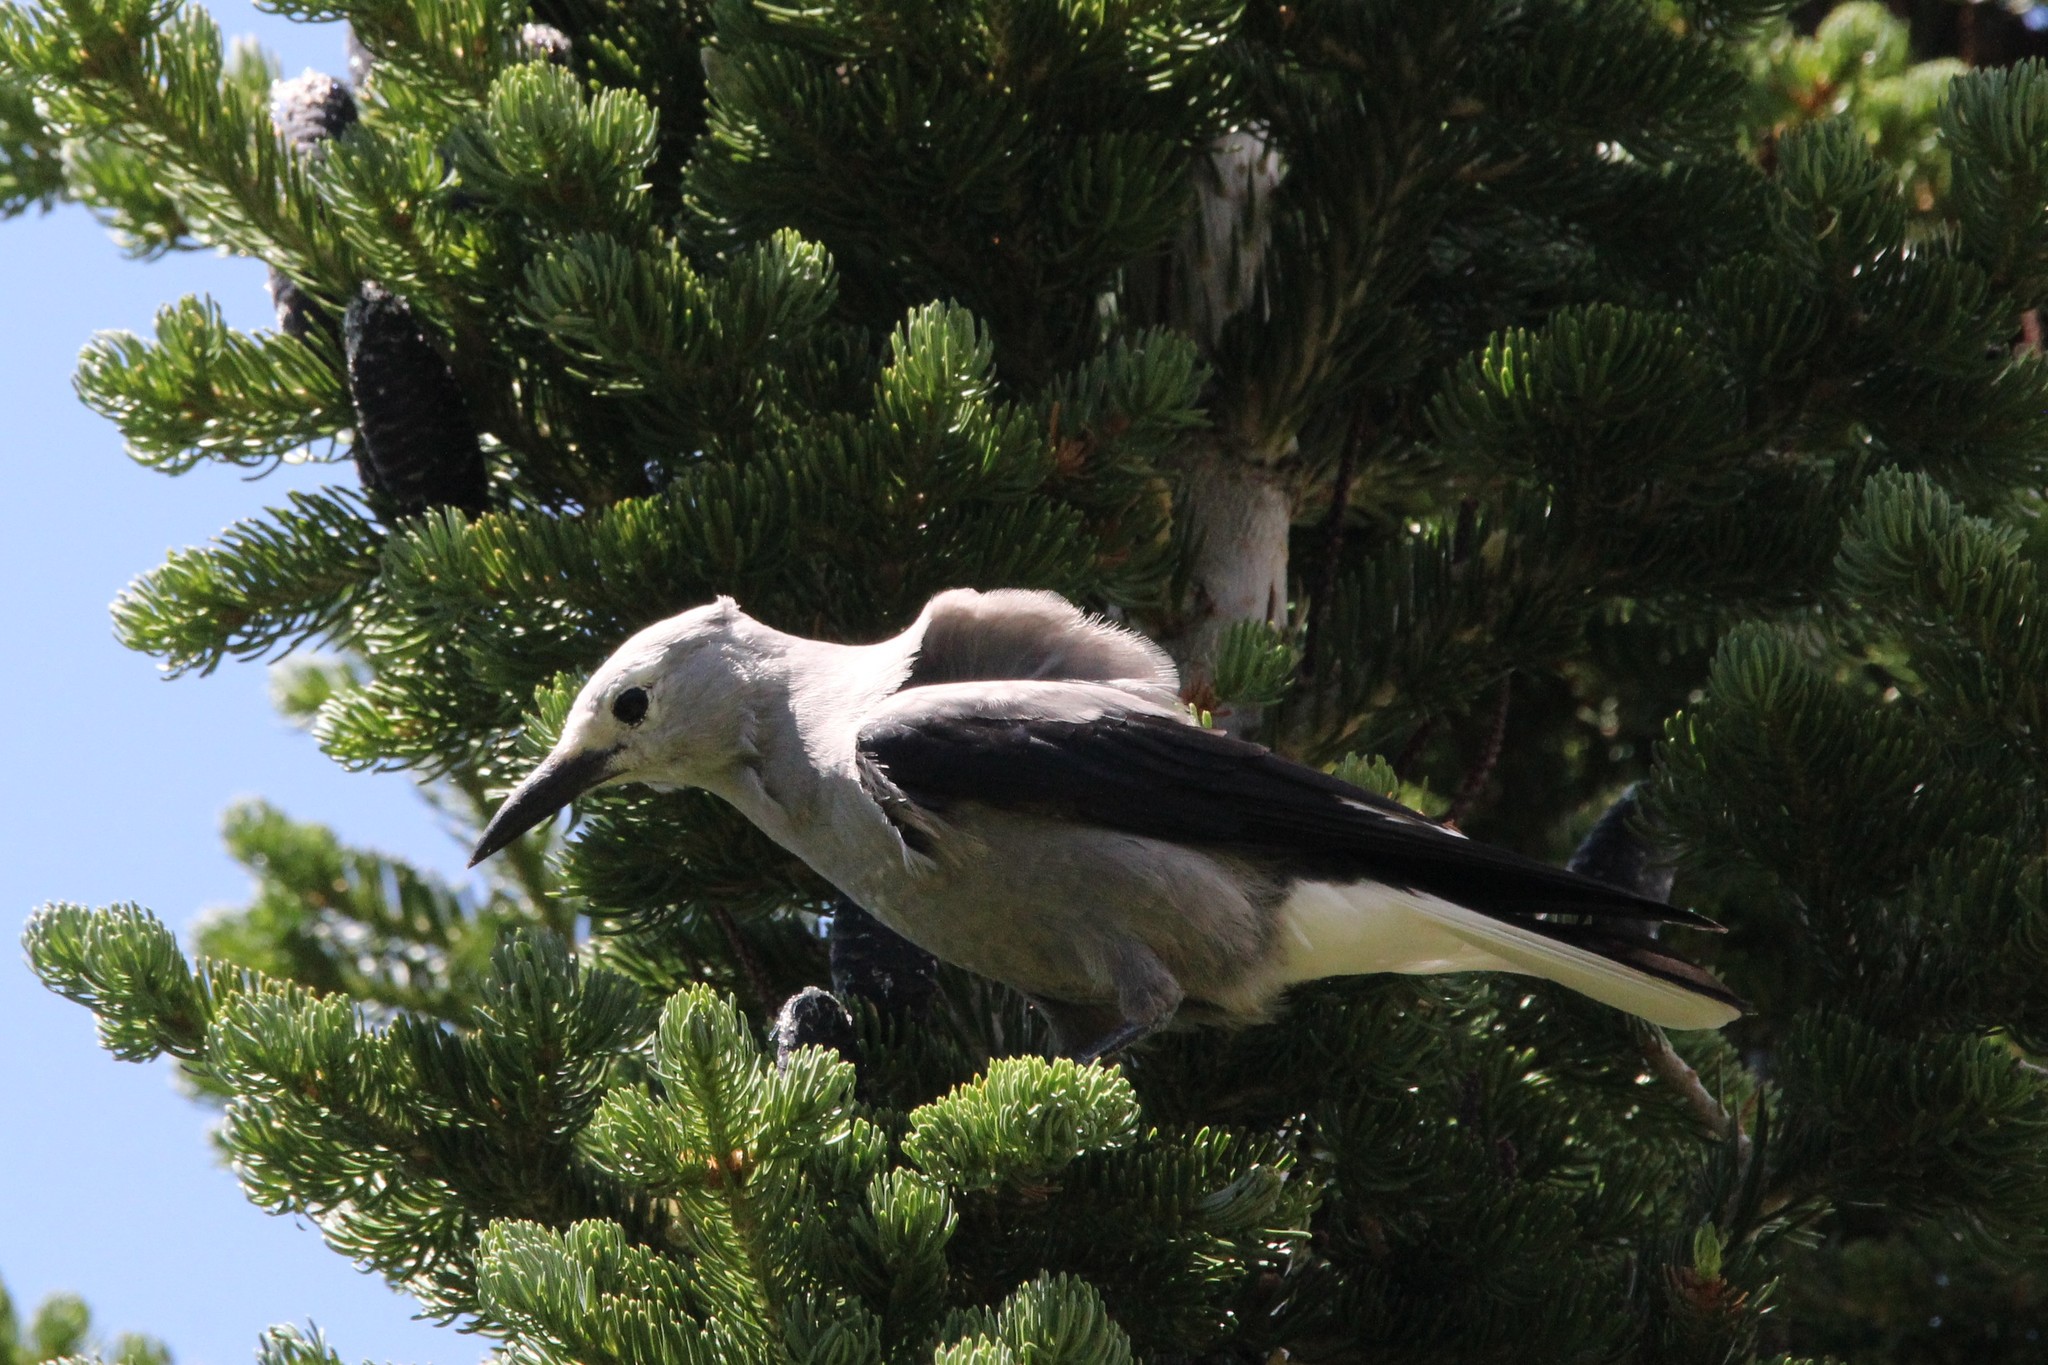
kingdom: Animalia
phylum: Chordata
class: Aves
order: Passeriformes
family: Corvidae
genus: Nucifraga
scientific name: Nucifraga columbiana
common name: Clark's nutcracker
